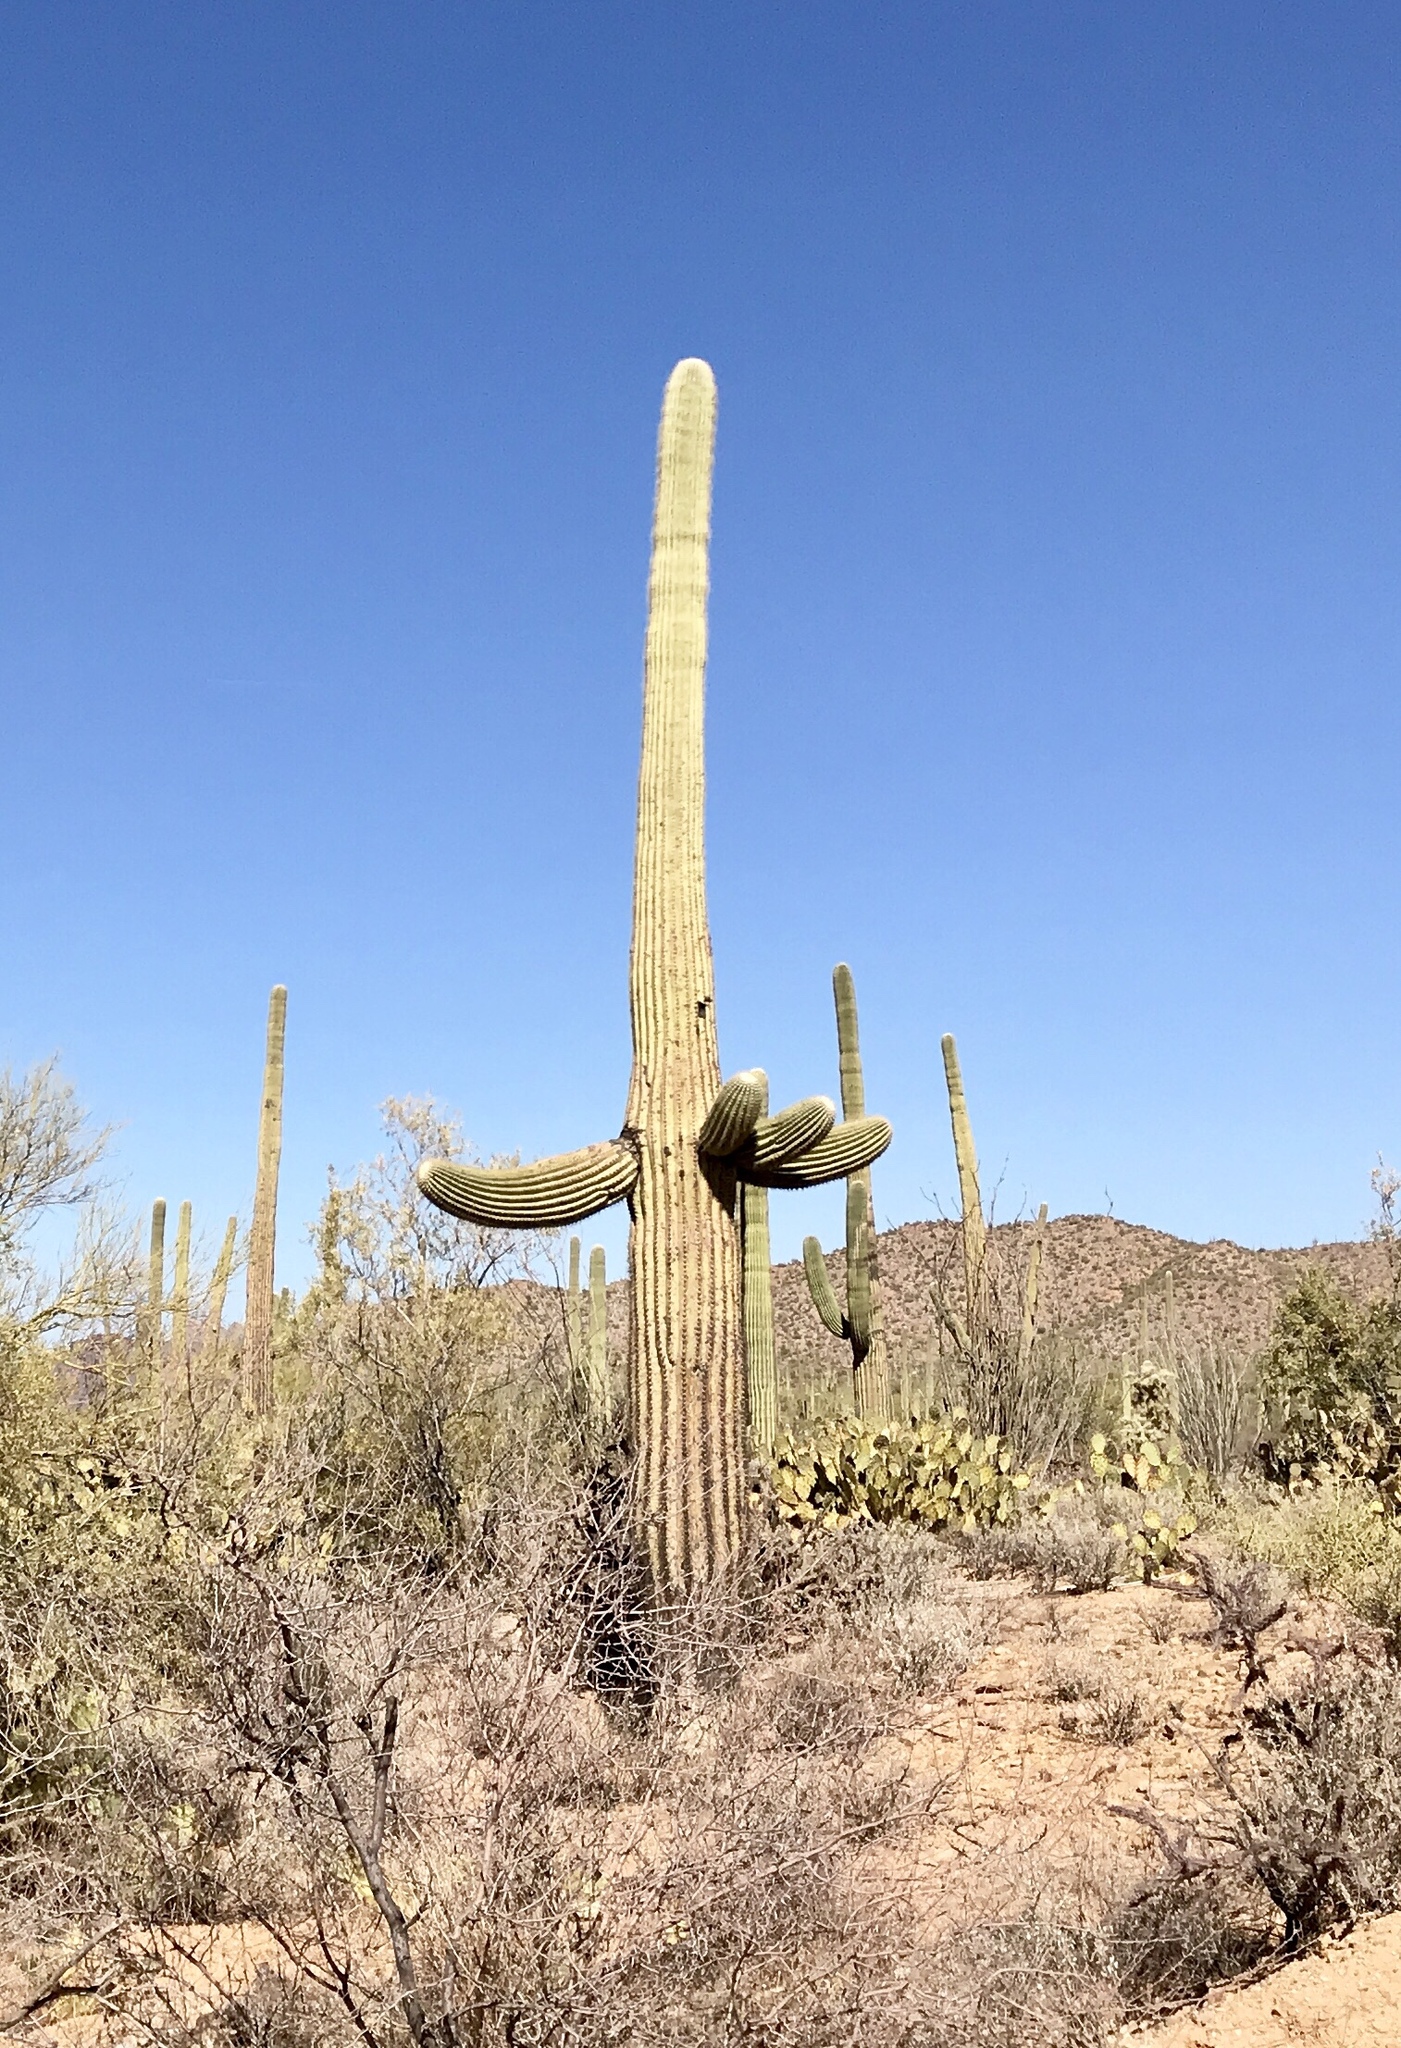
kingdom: Plantae
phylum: Tracheophyta
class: Magnoliopsida
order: Caryophyllales
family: Cactaceae
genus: Carnegiea
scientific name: Carnegiea gigantea
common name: Saguaro
